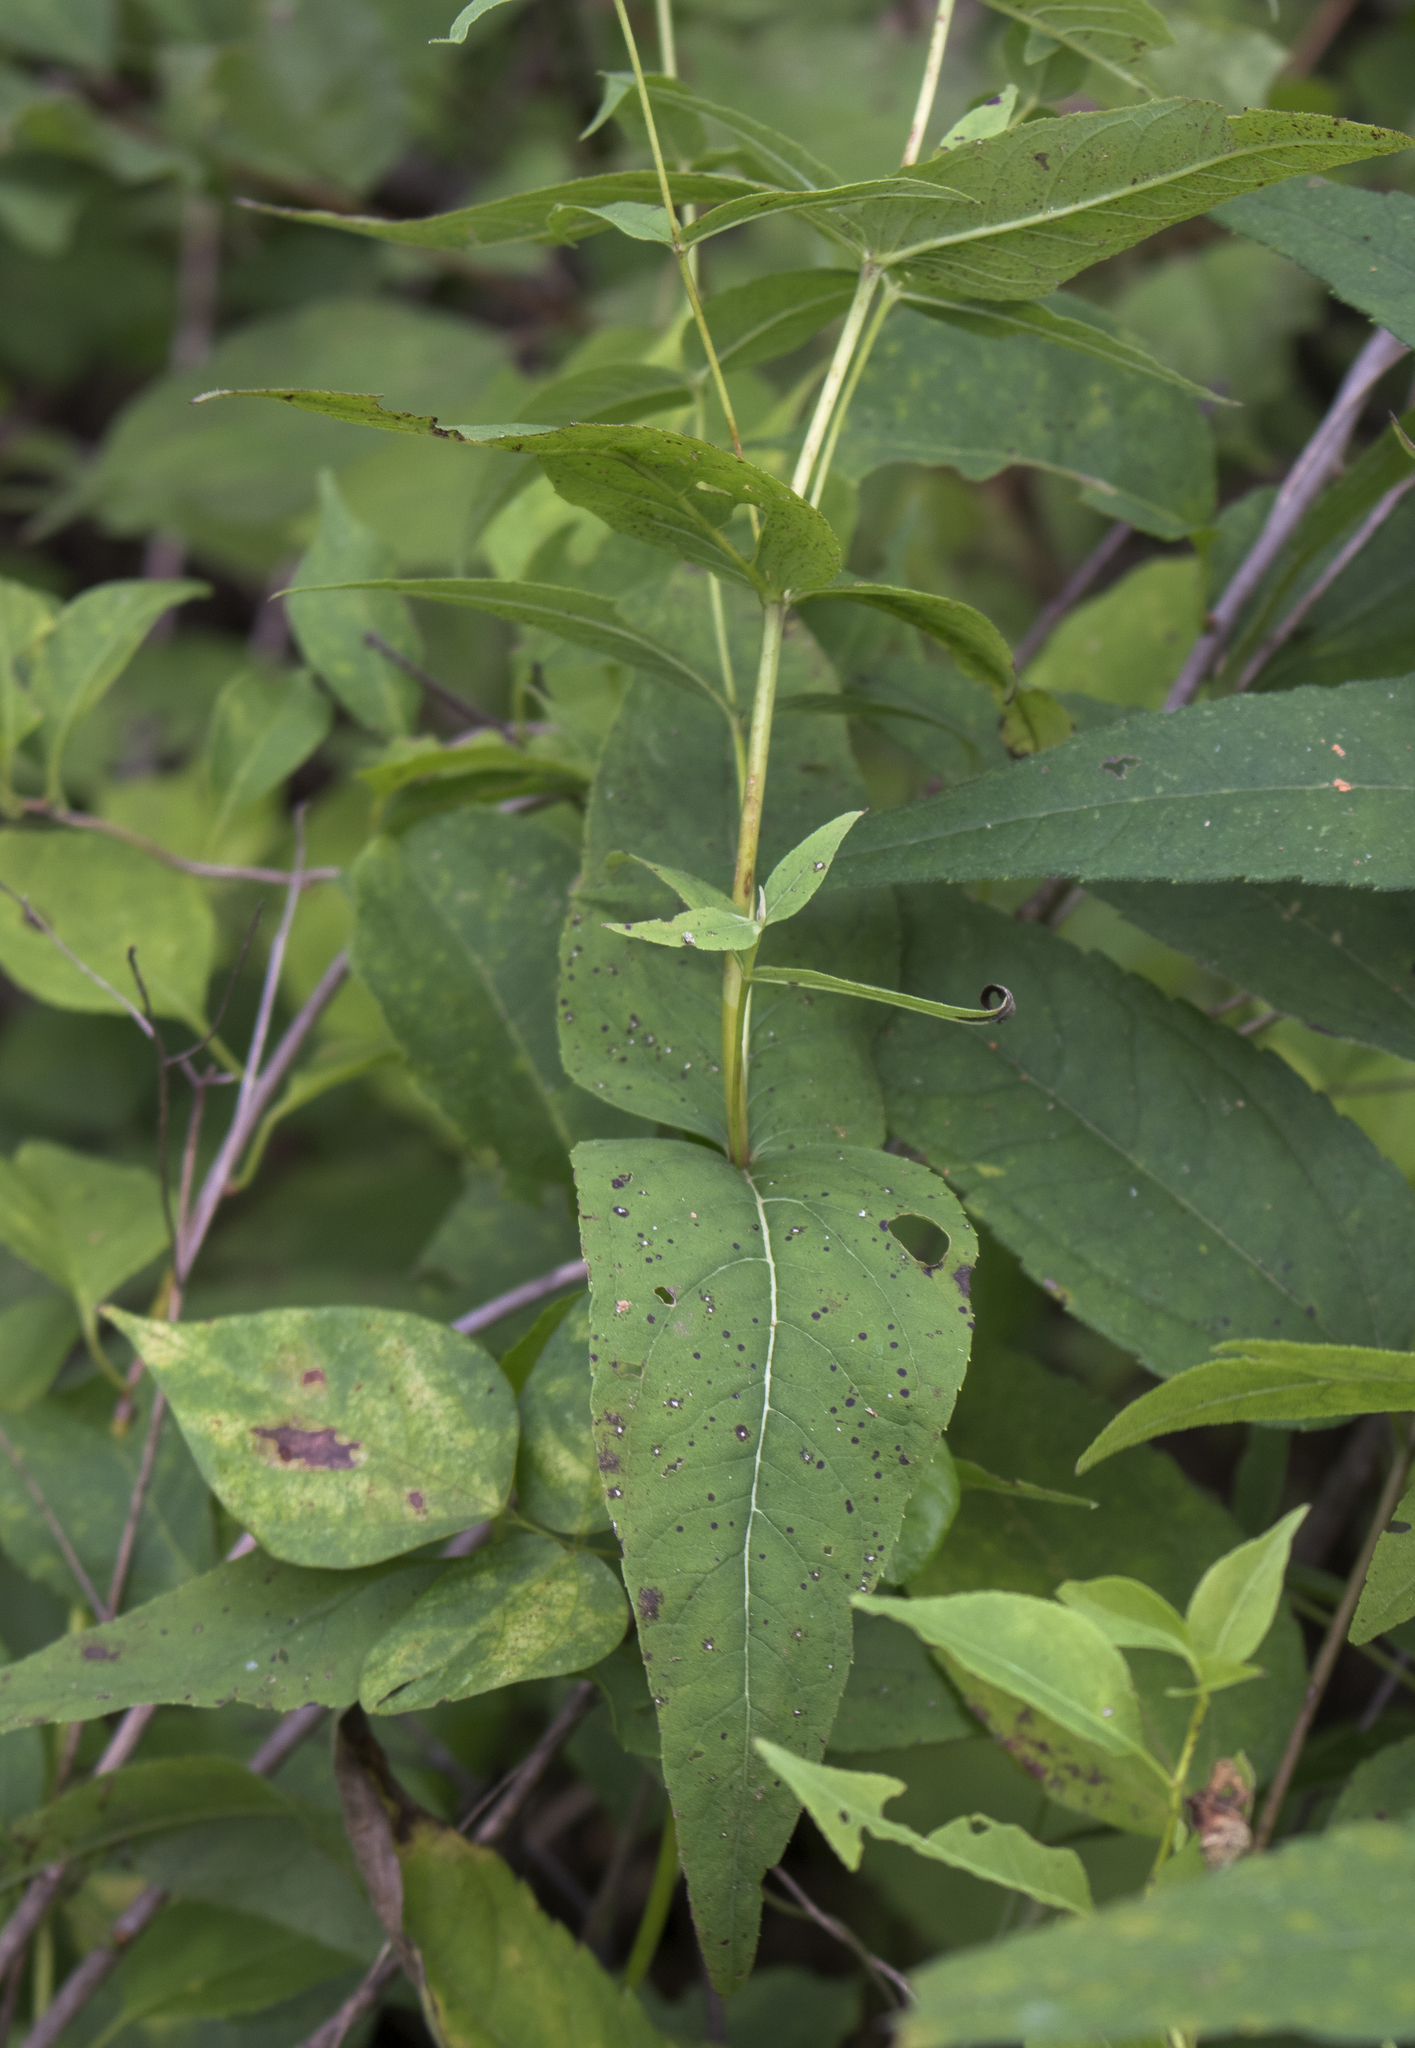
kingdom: Plantae
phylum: Tracheophyta
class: Magnoliopsida
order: Asterales
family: Asteraceae
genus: Eupatorium
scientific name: Eupatorium sessilifolium
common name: Upland boneset
